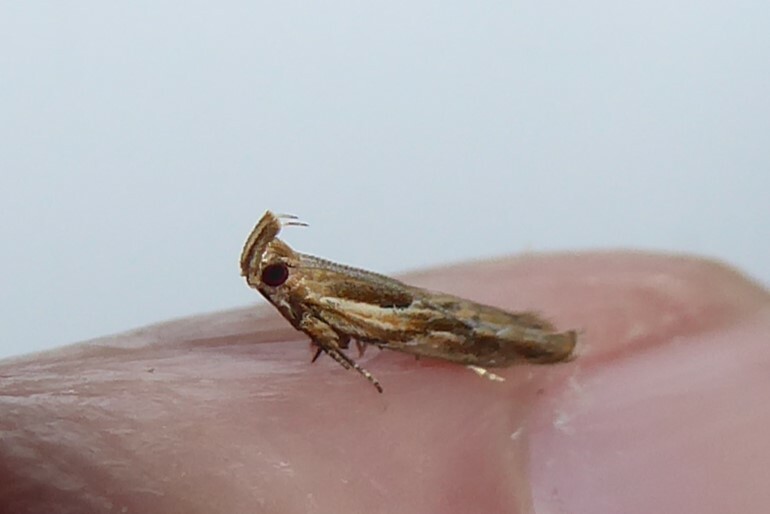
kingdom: Animalia
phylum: Arthropoda
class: Insecta
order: Lepidoptera
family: Depressariidae
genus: Eutorna
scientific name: Eutorna symmorpha
